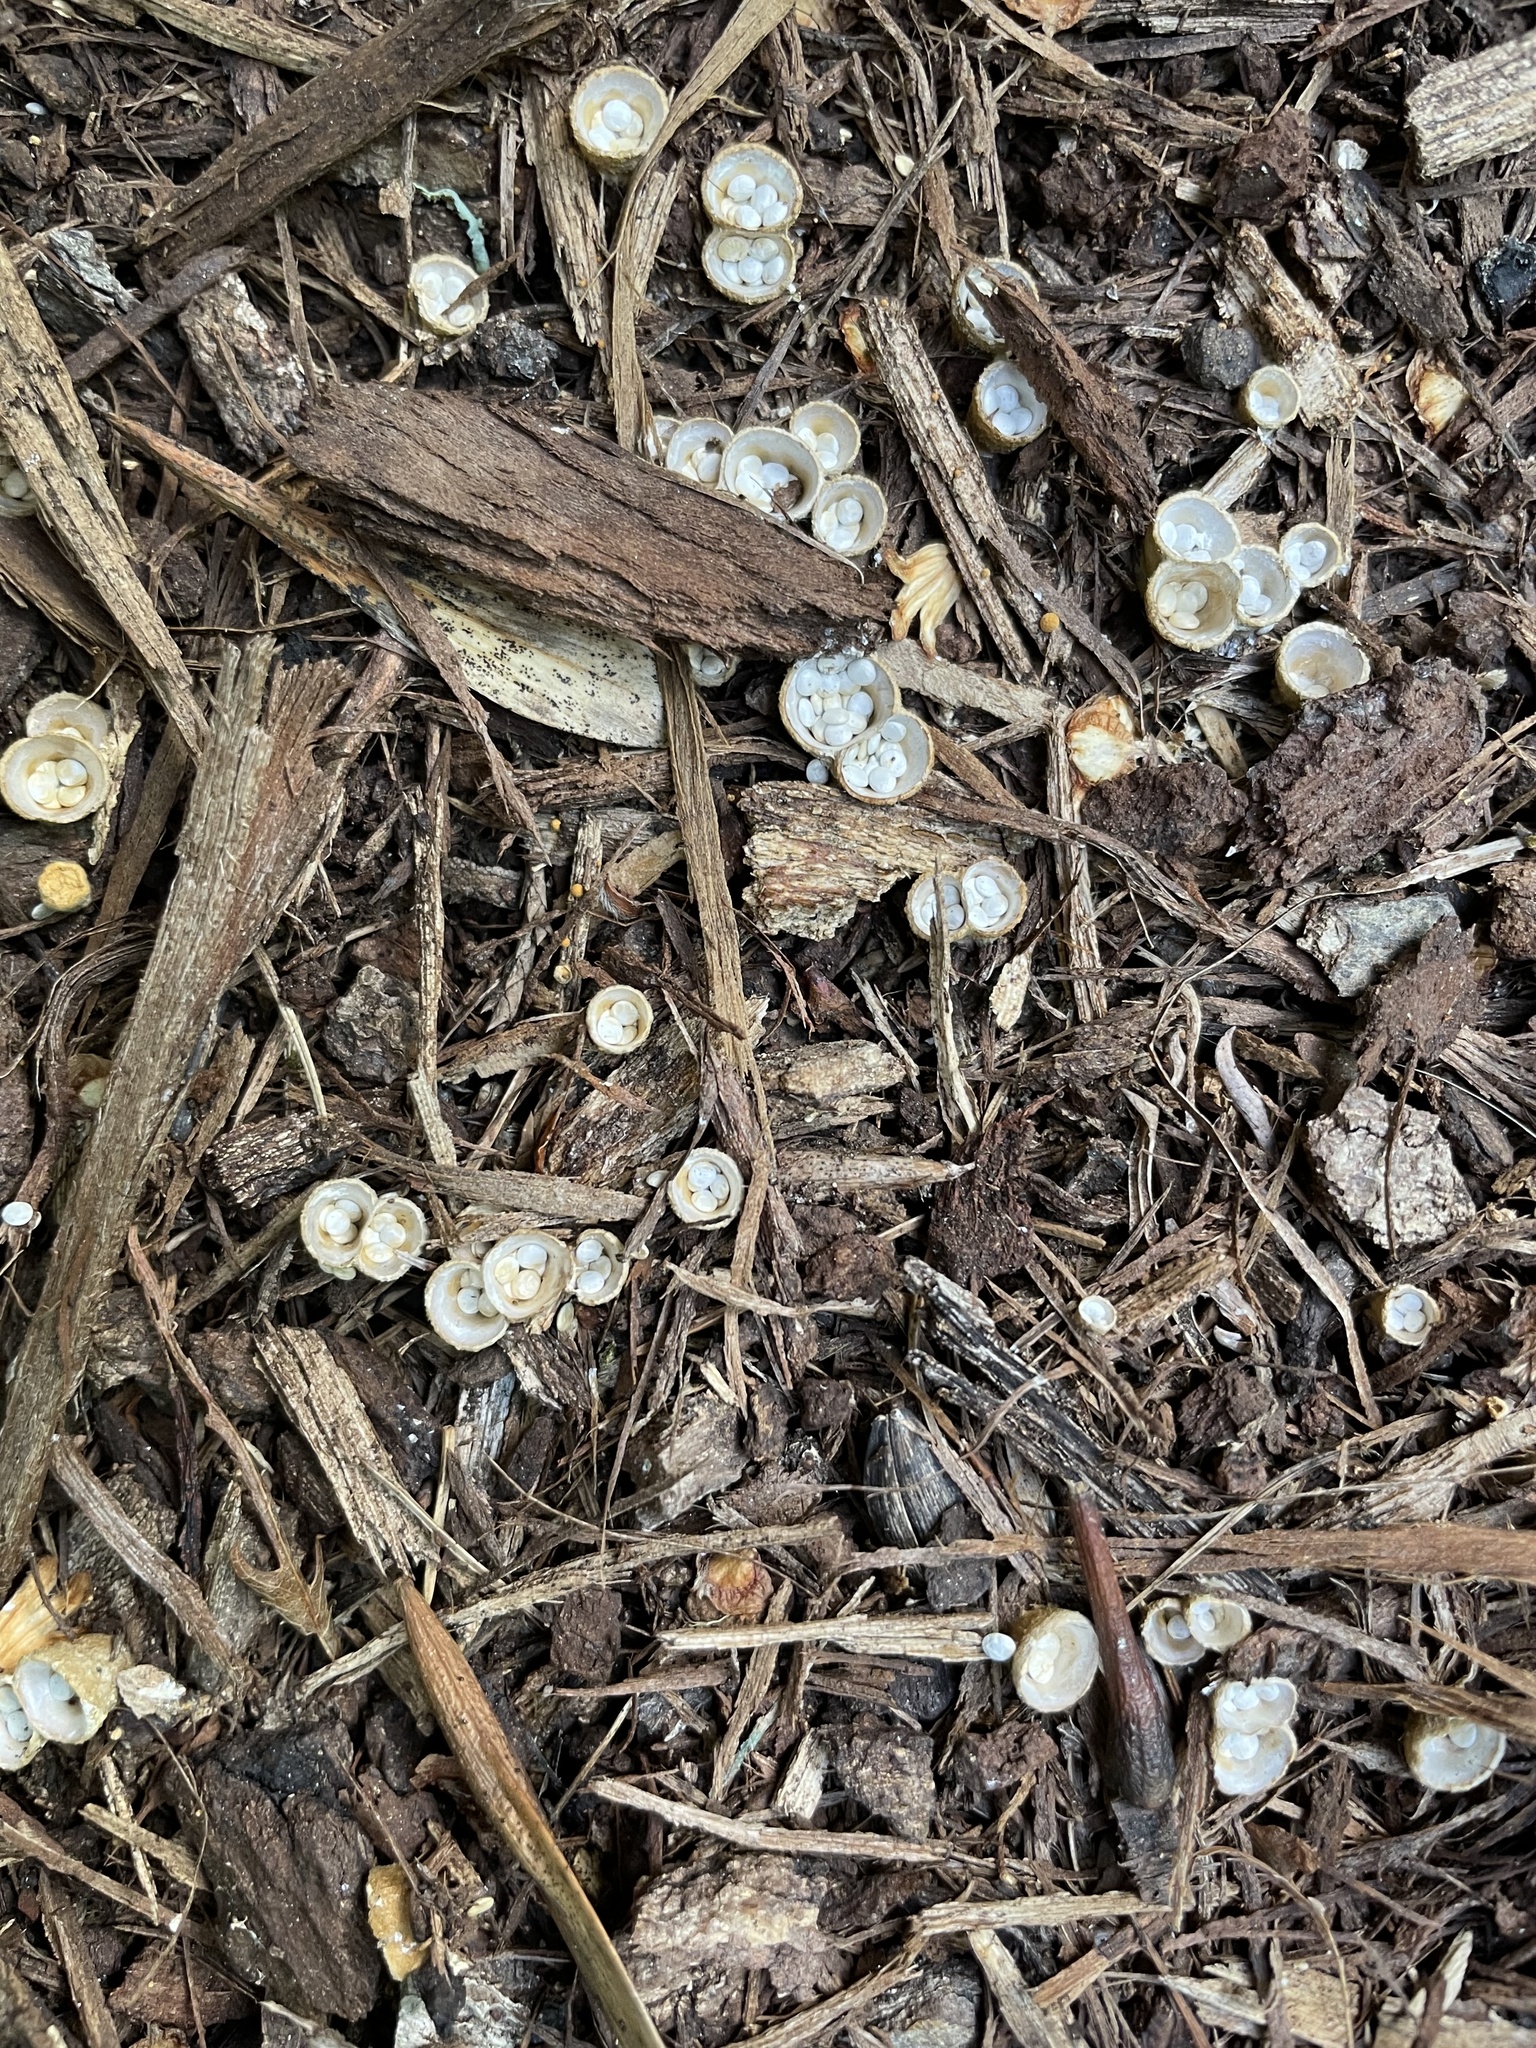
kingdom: Fungi
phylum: Basidiomycota
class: Agaricomycetes
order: Agaricales
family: Nidulariaceae
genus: Crucibulum
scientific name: Crucibulum laeve
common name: Common bird's nest
